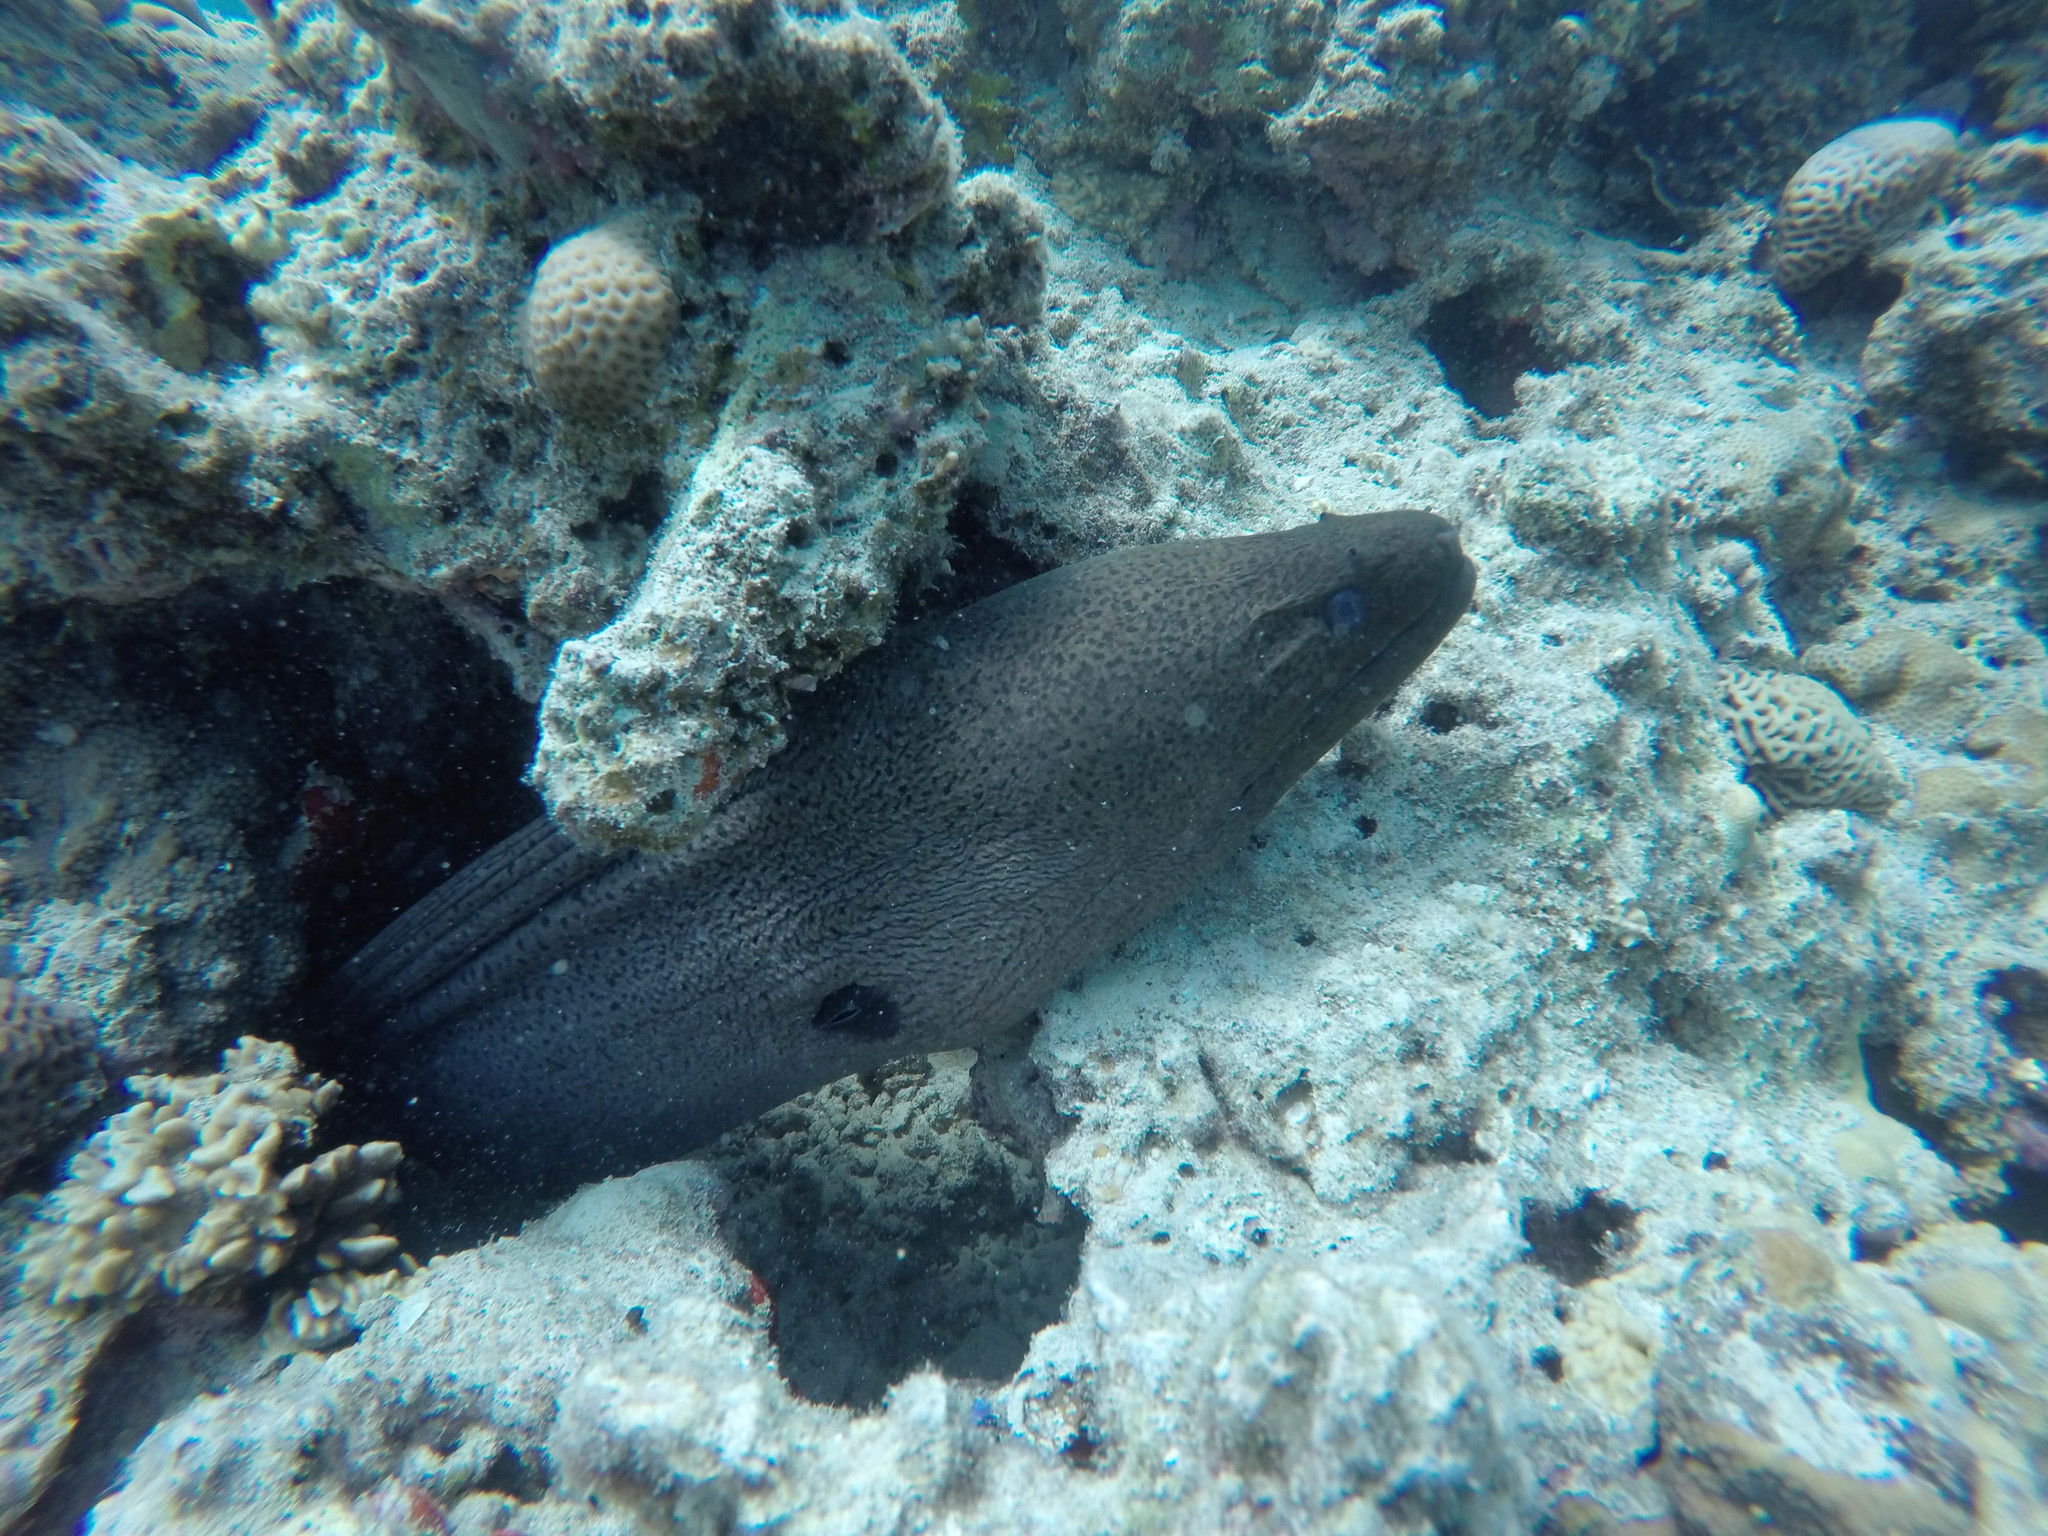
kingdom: Animalia
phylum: Chordata
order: Anguilliformes
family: Muraenidae
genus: Gymnothorax
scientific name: Gymnothorax javanicus
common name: Giant moray
